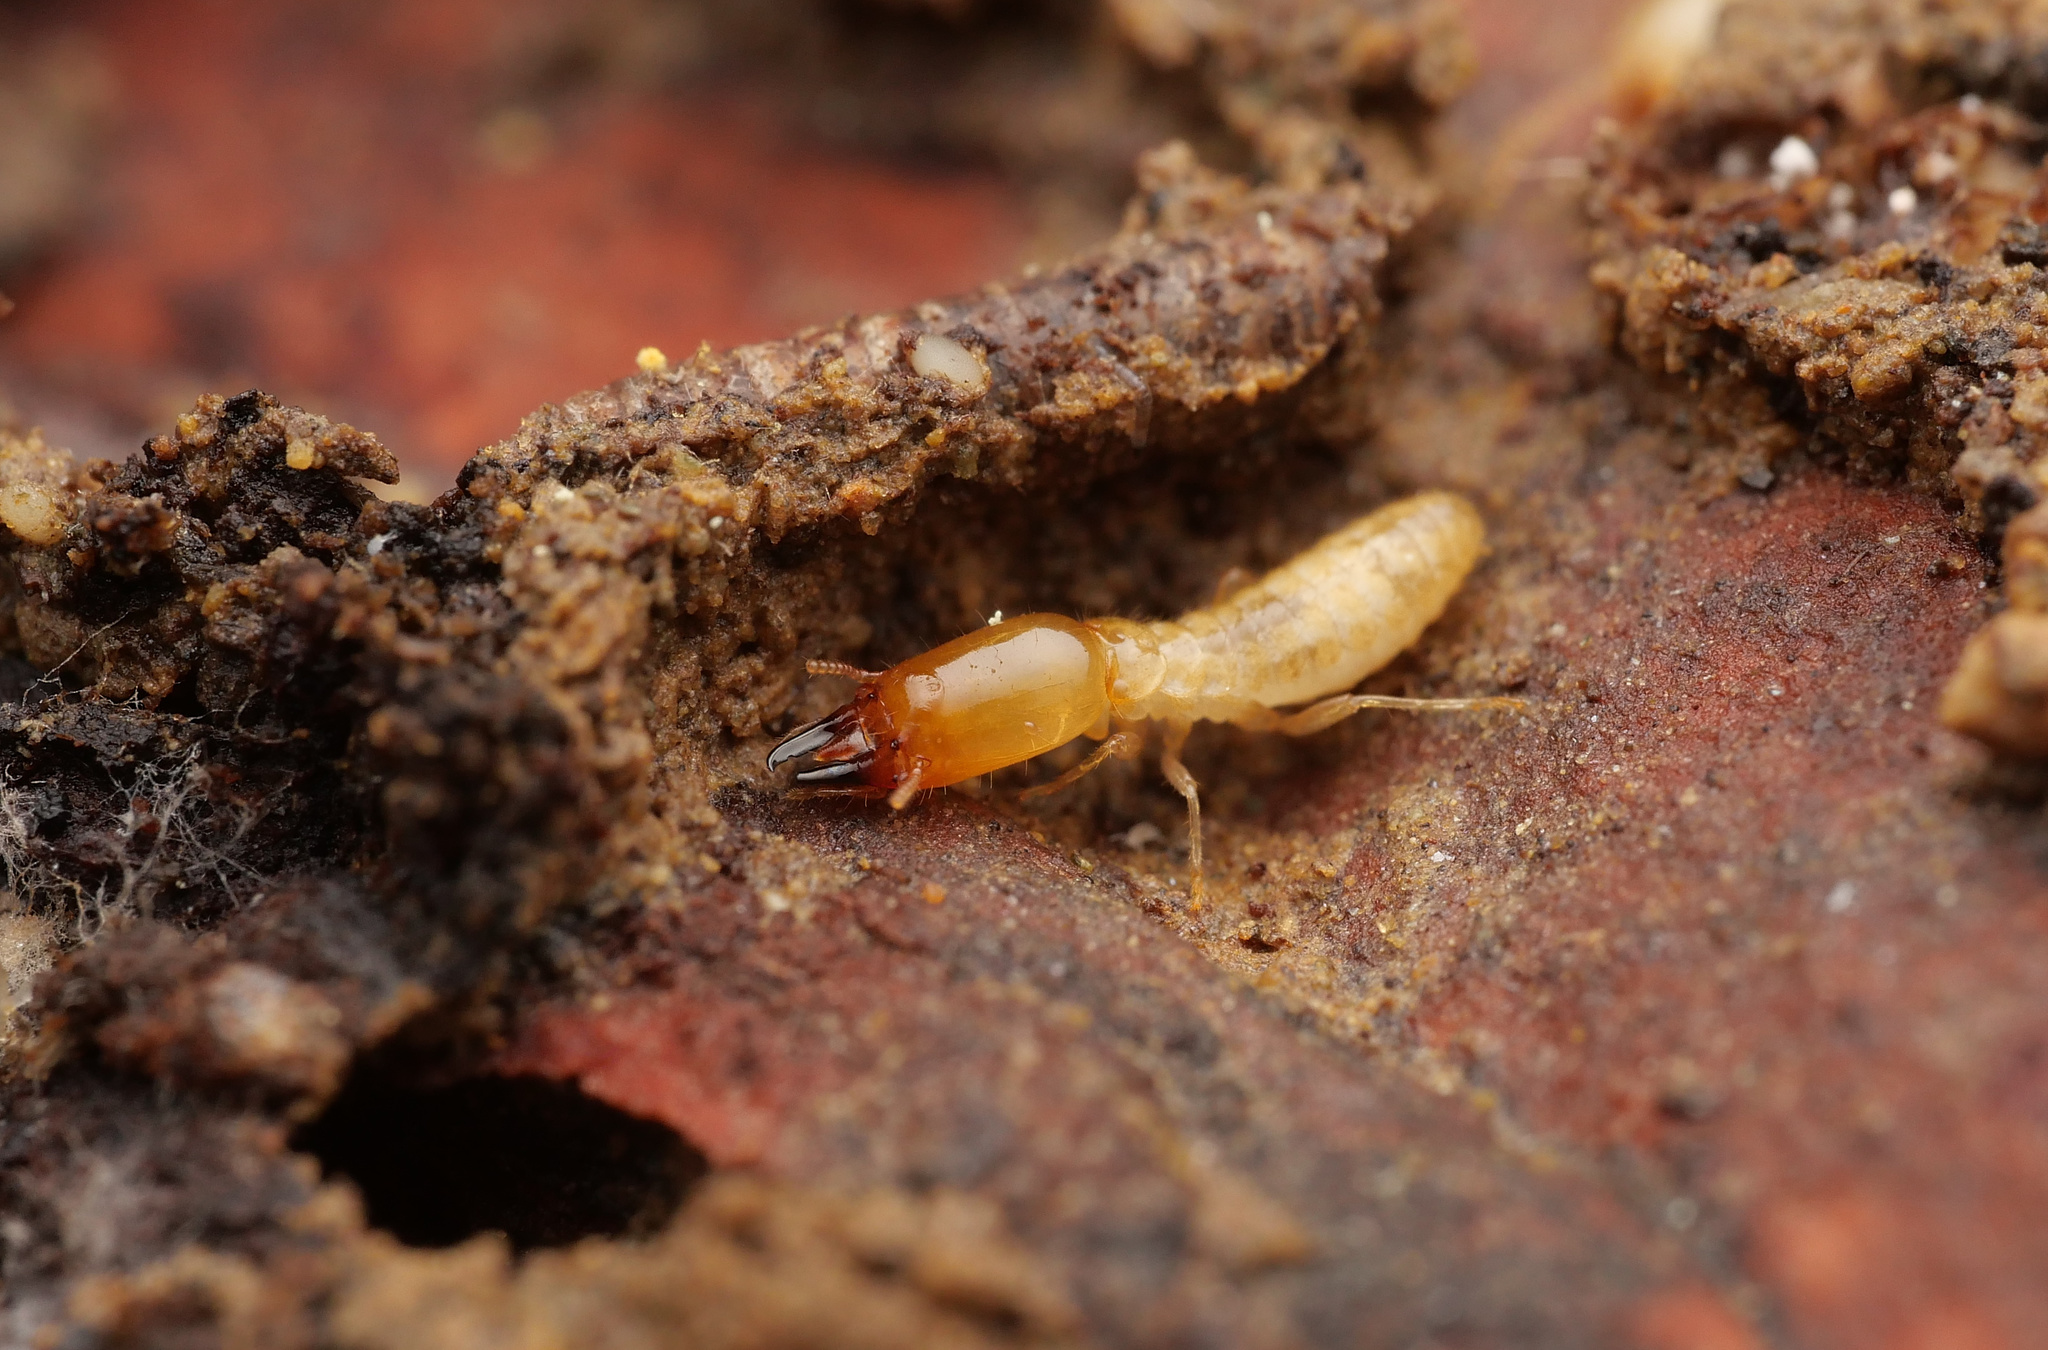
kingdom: Animalia
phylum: Arthropoda
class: Insecta
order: Blattodea
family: Rhinotermitidae
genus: Reticulitermes
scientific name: Reticulitermes
